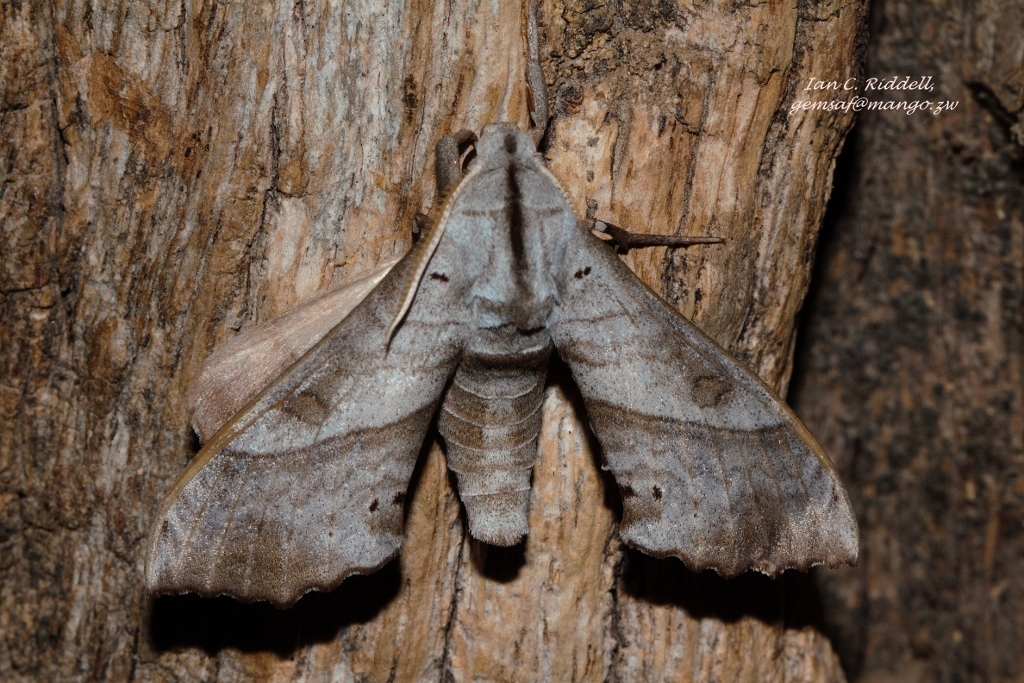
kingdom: Animalia
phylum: Arthropoda
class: Insecta
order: Lepidoptera
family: Sphingidae
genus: Rufoclanis
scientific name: Rufoclanis numosae
